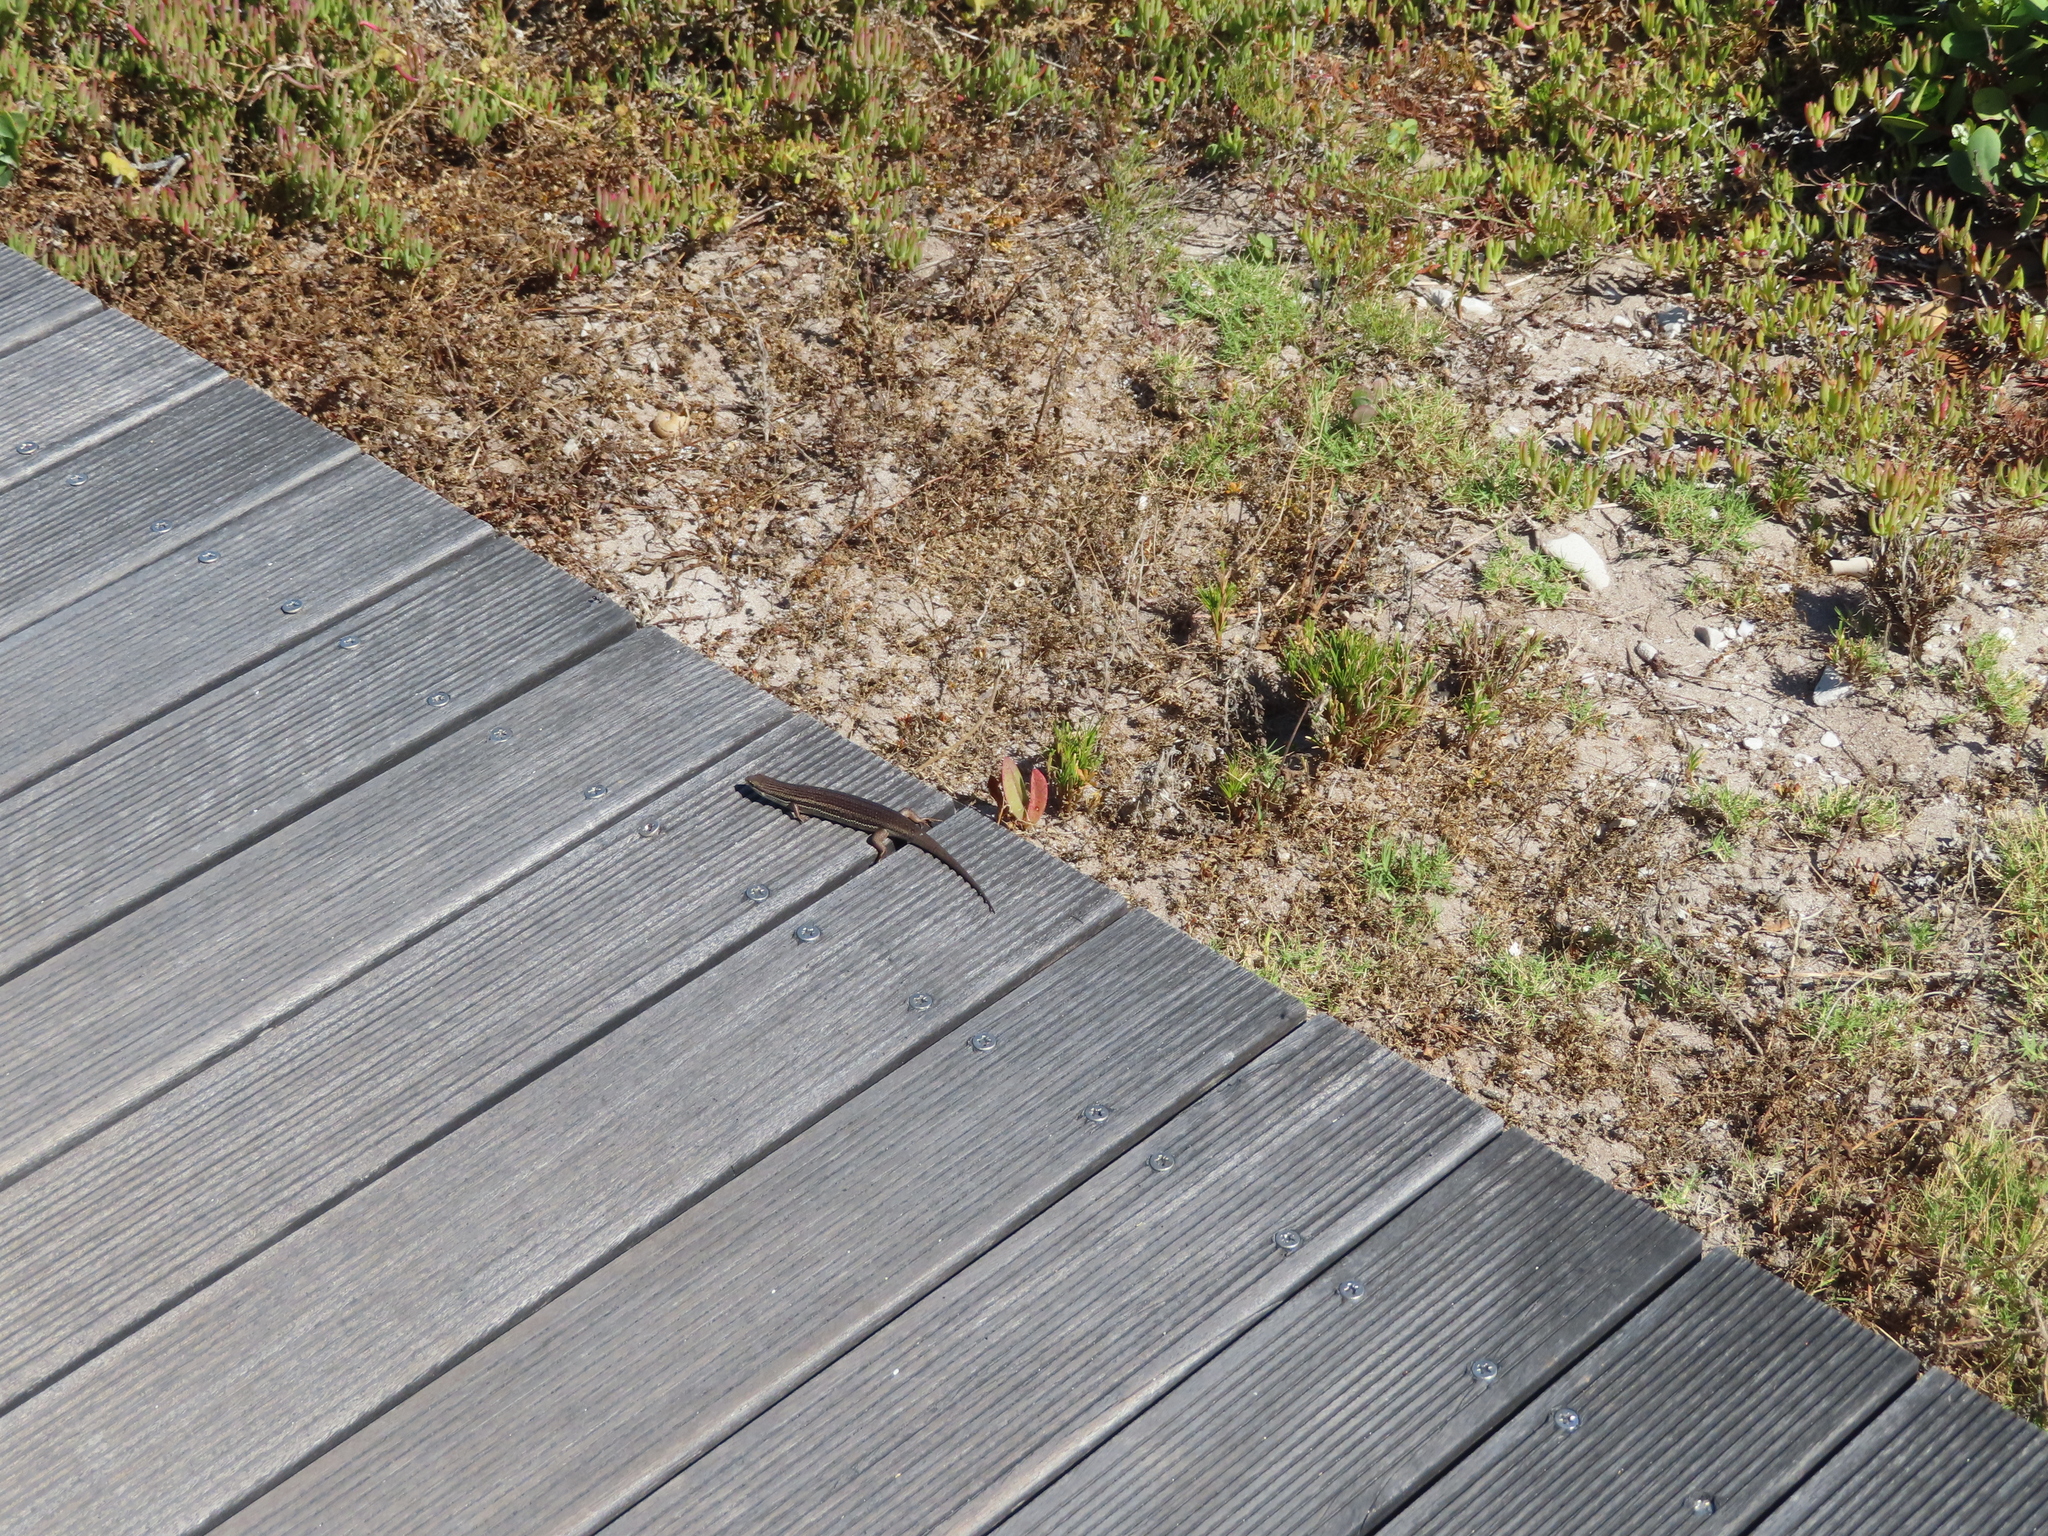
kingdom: Animalia
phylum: Chordata
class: Squamata
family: Scincidae
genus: Trachylepis
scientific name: Trachylepis homalocephala
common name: Red-sided skink
